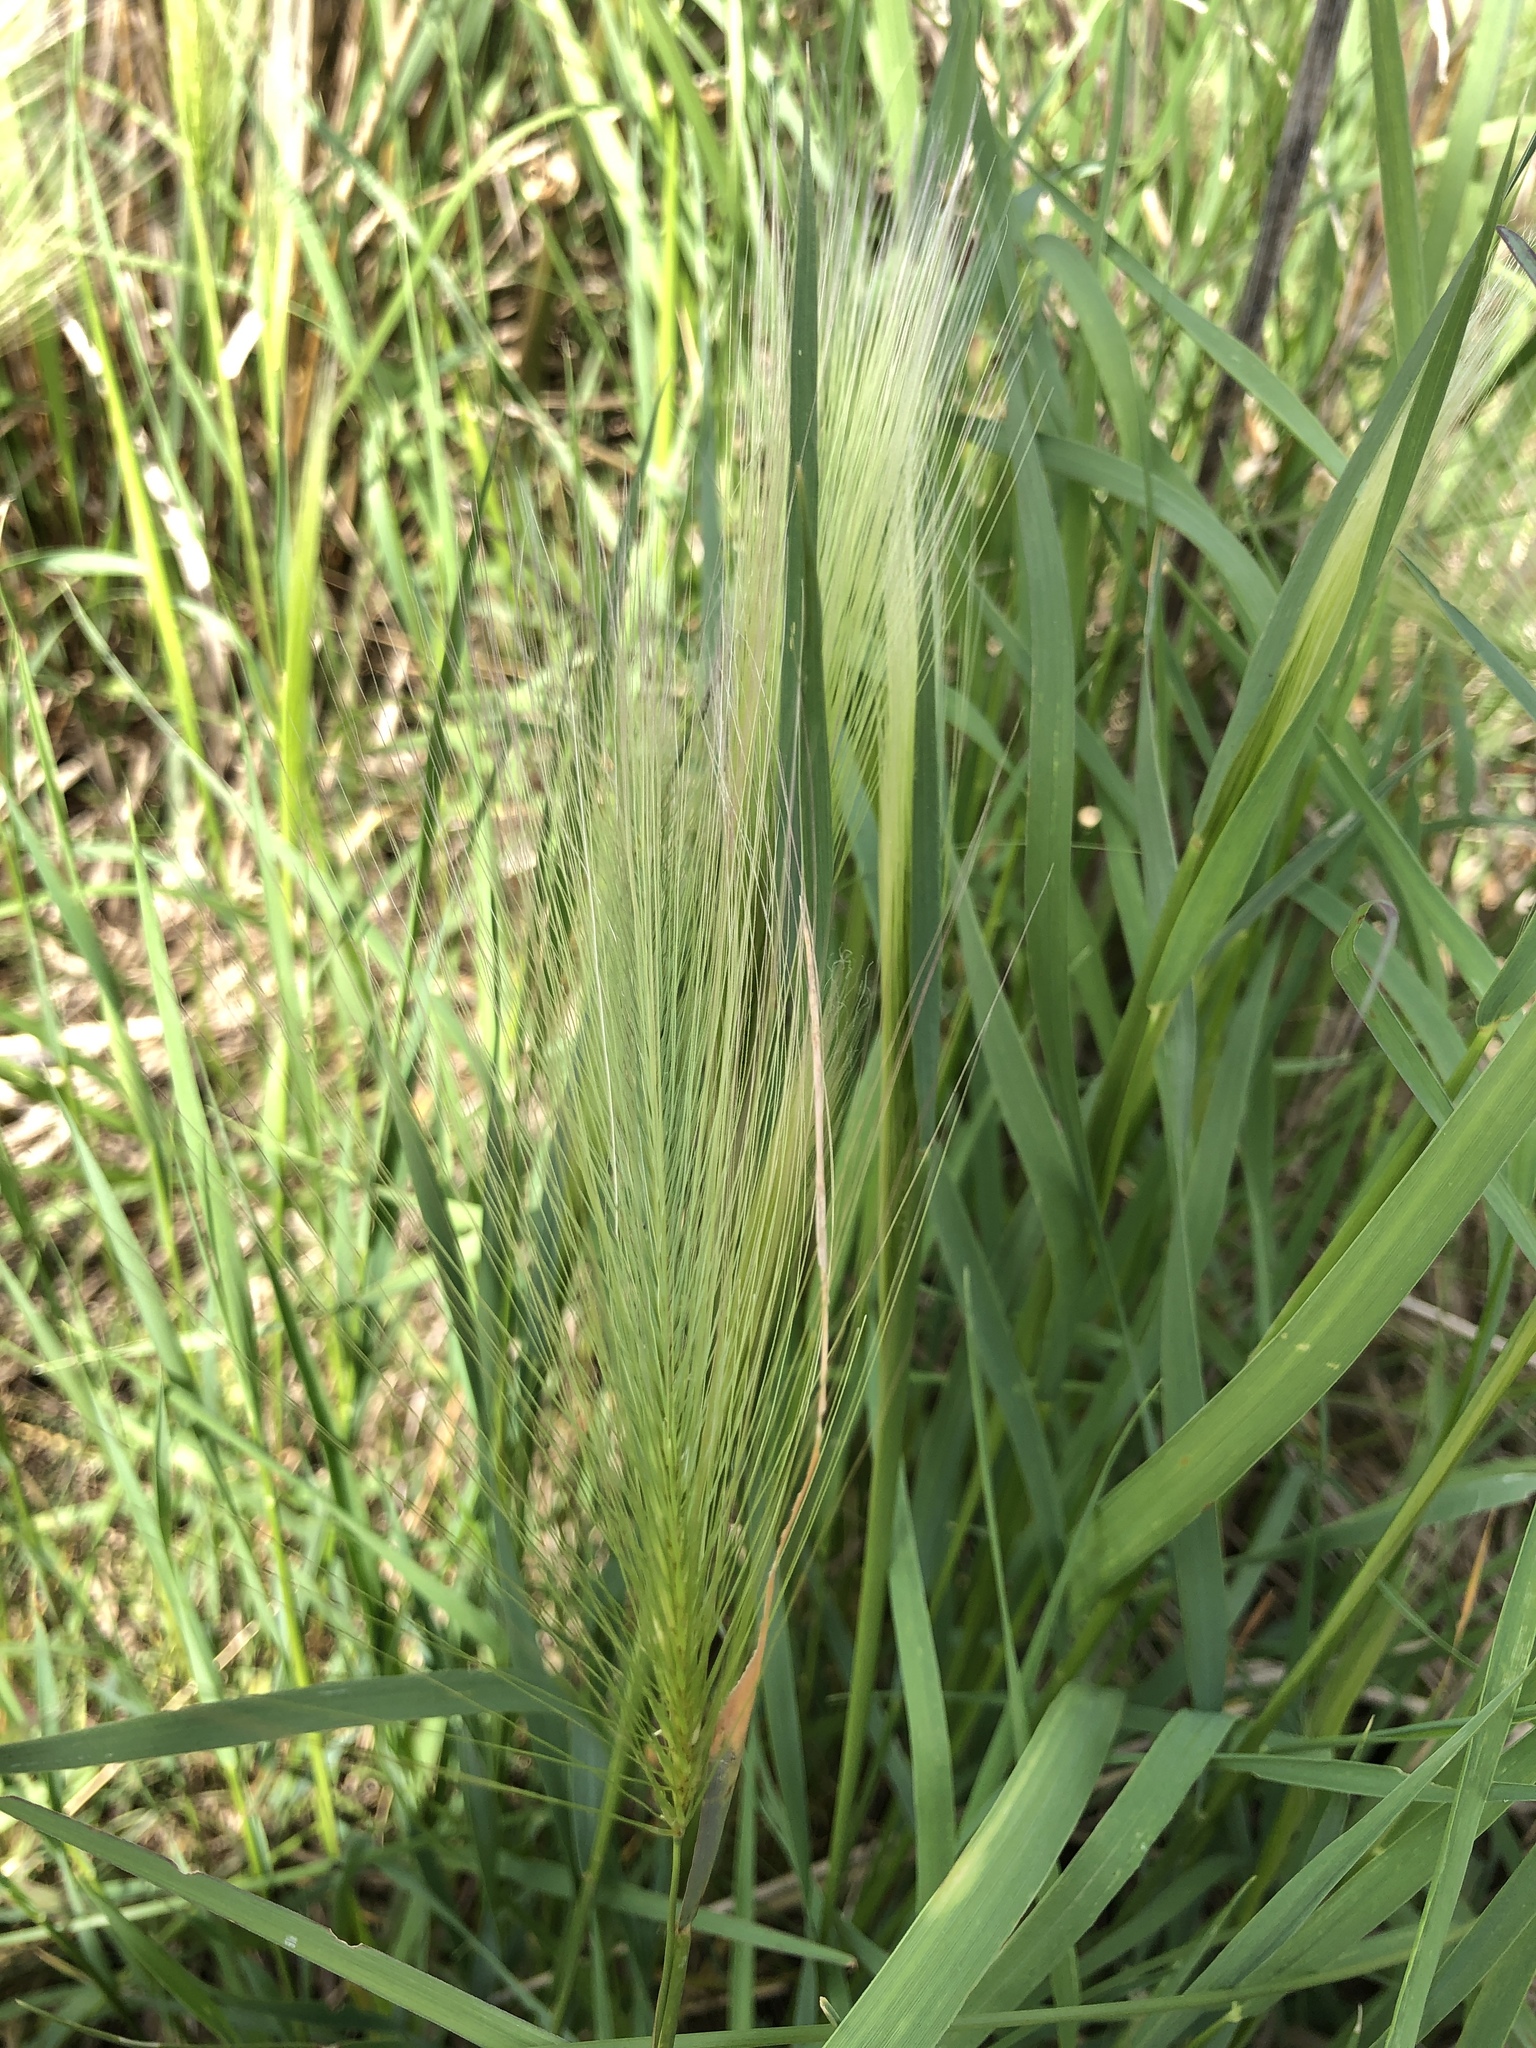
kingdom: Plantae
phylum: Tracheophyta
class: Liliopsida
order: Poales
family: Poaceae
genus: Hordeum
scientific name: Hordeum jubatum
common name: Foxtail barley
